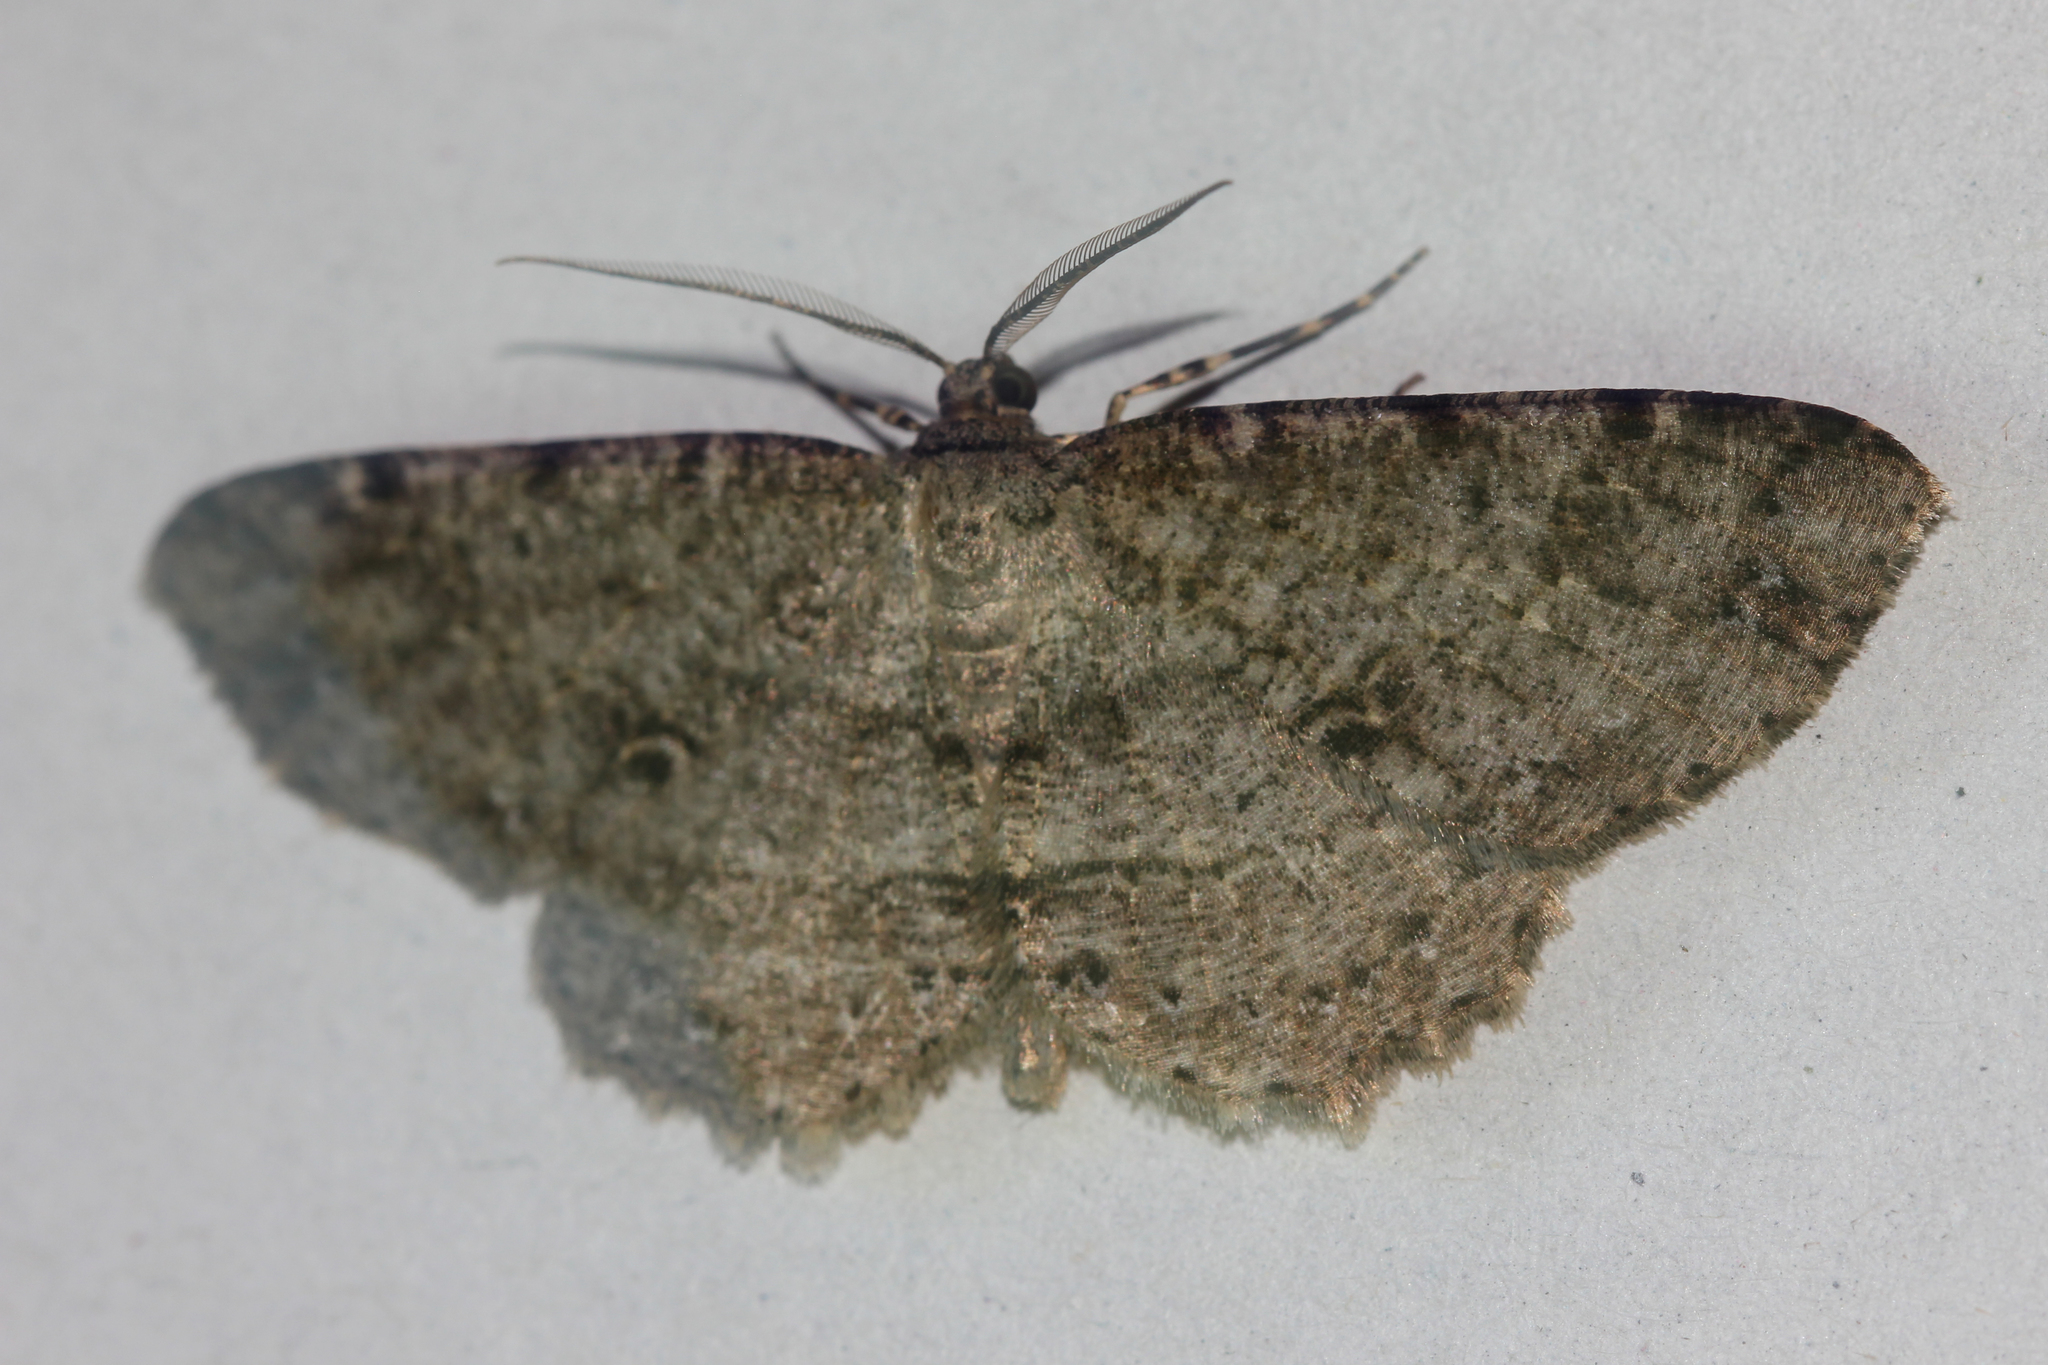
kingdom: Animalia
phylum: Arthropoda
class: Insecta
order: Lepidoptera
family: Geometridae
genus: Melanolophia
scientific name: Melanolophia canadaria
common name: Canadian melanolophia
